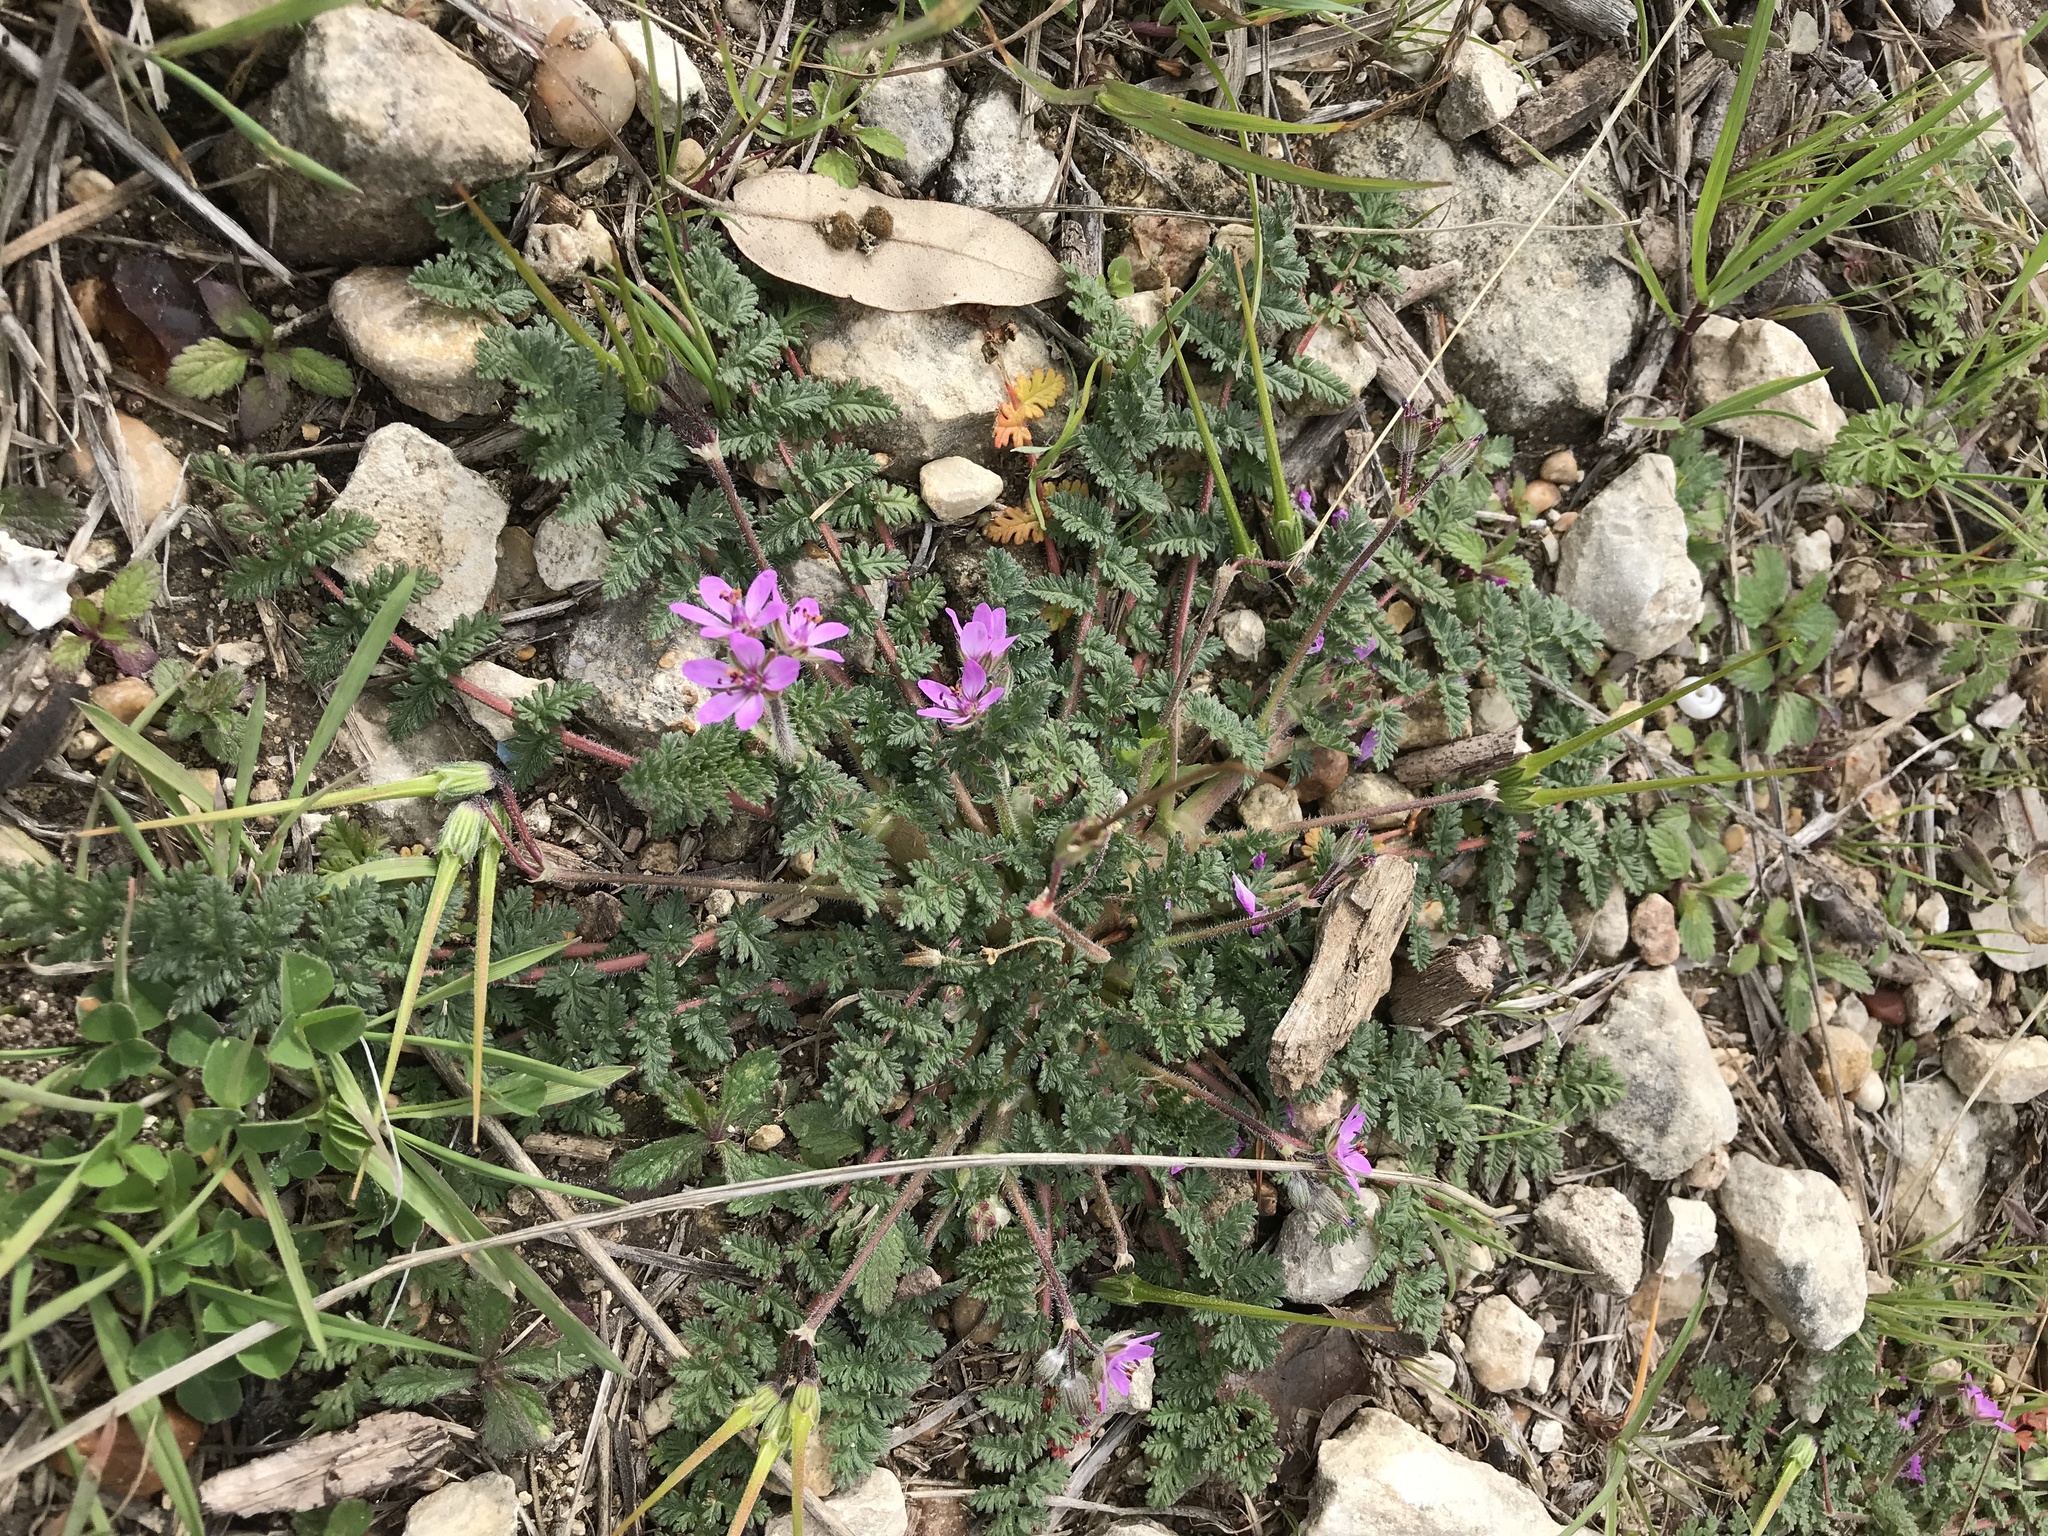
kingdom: Plantae
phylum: Tracheophyta
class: Magnoliopsida
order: Geraniales
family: Geraniaceae
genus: Erodium
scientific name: Erodium cicutarium
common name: Common stork's-bill
